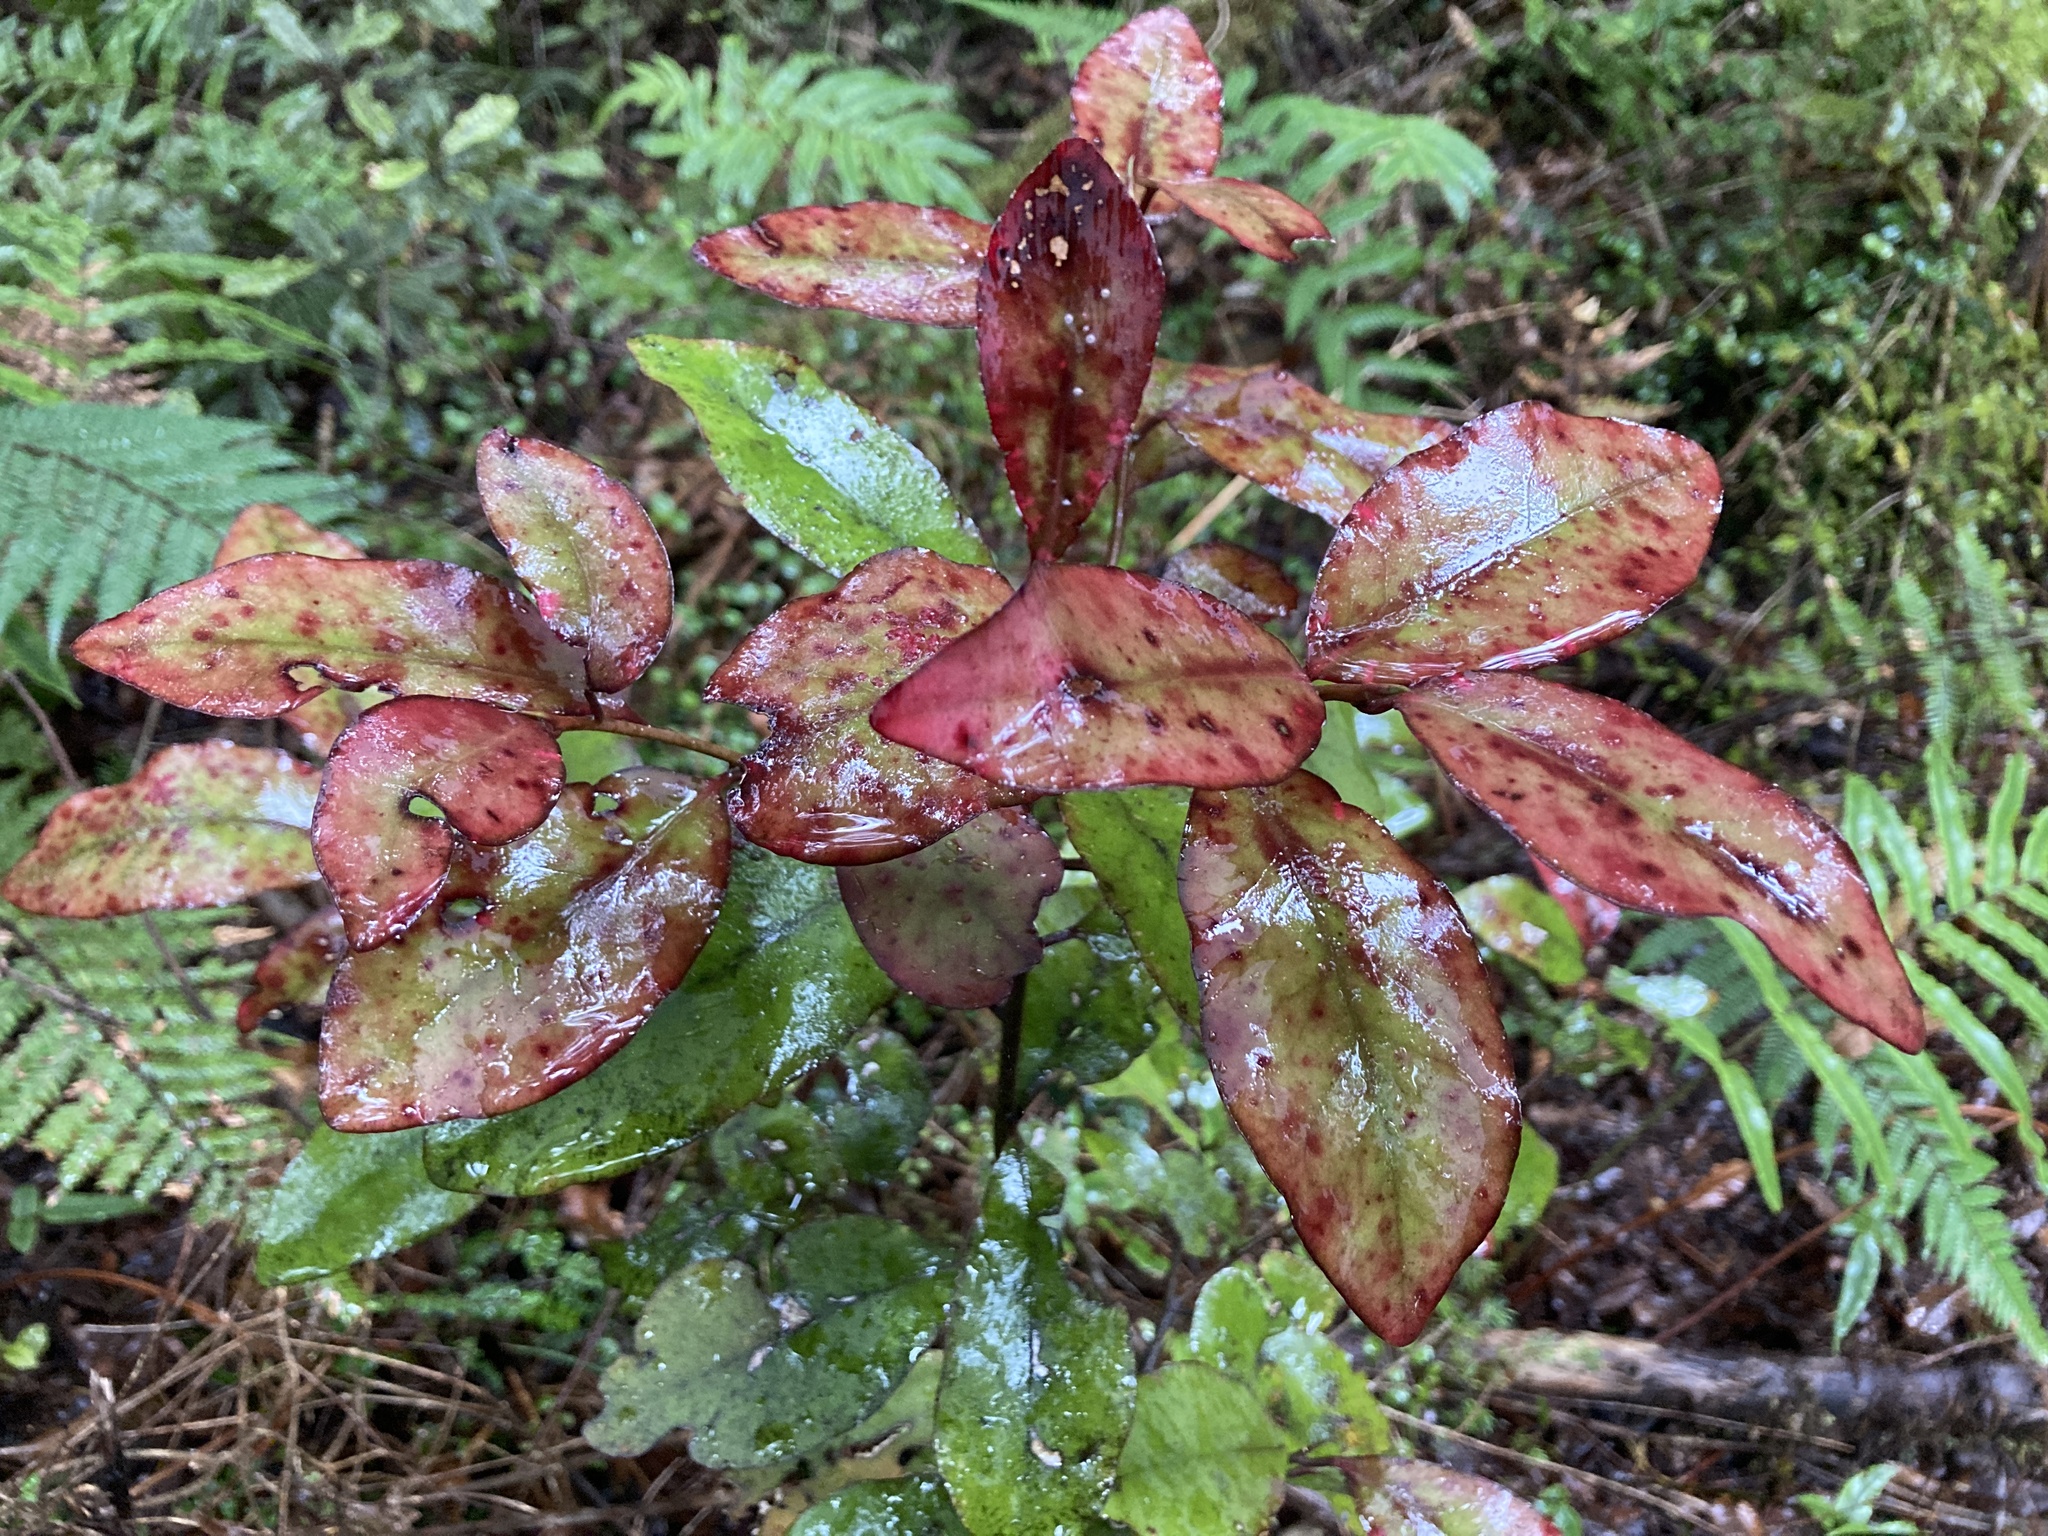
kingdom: Plantae
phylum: Tracheophyta
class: Magnoliopsida
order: Canellales
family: Winteraceae
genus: Pseudowintera
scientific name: Pseudowintera axillaris
